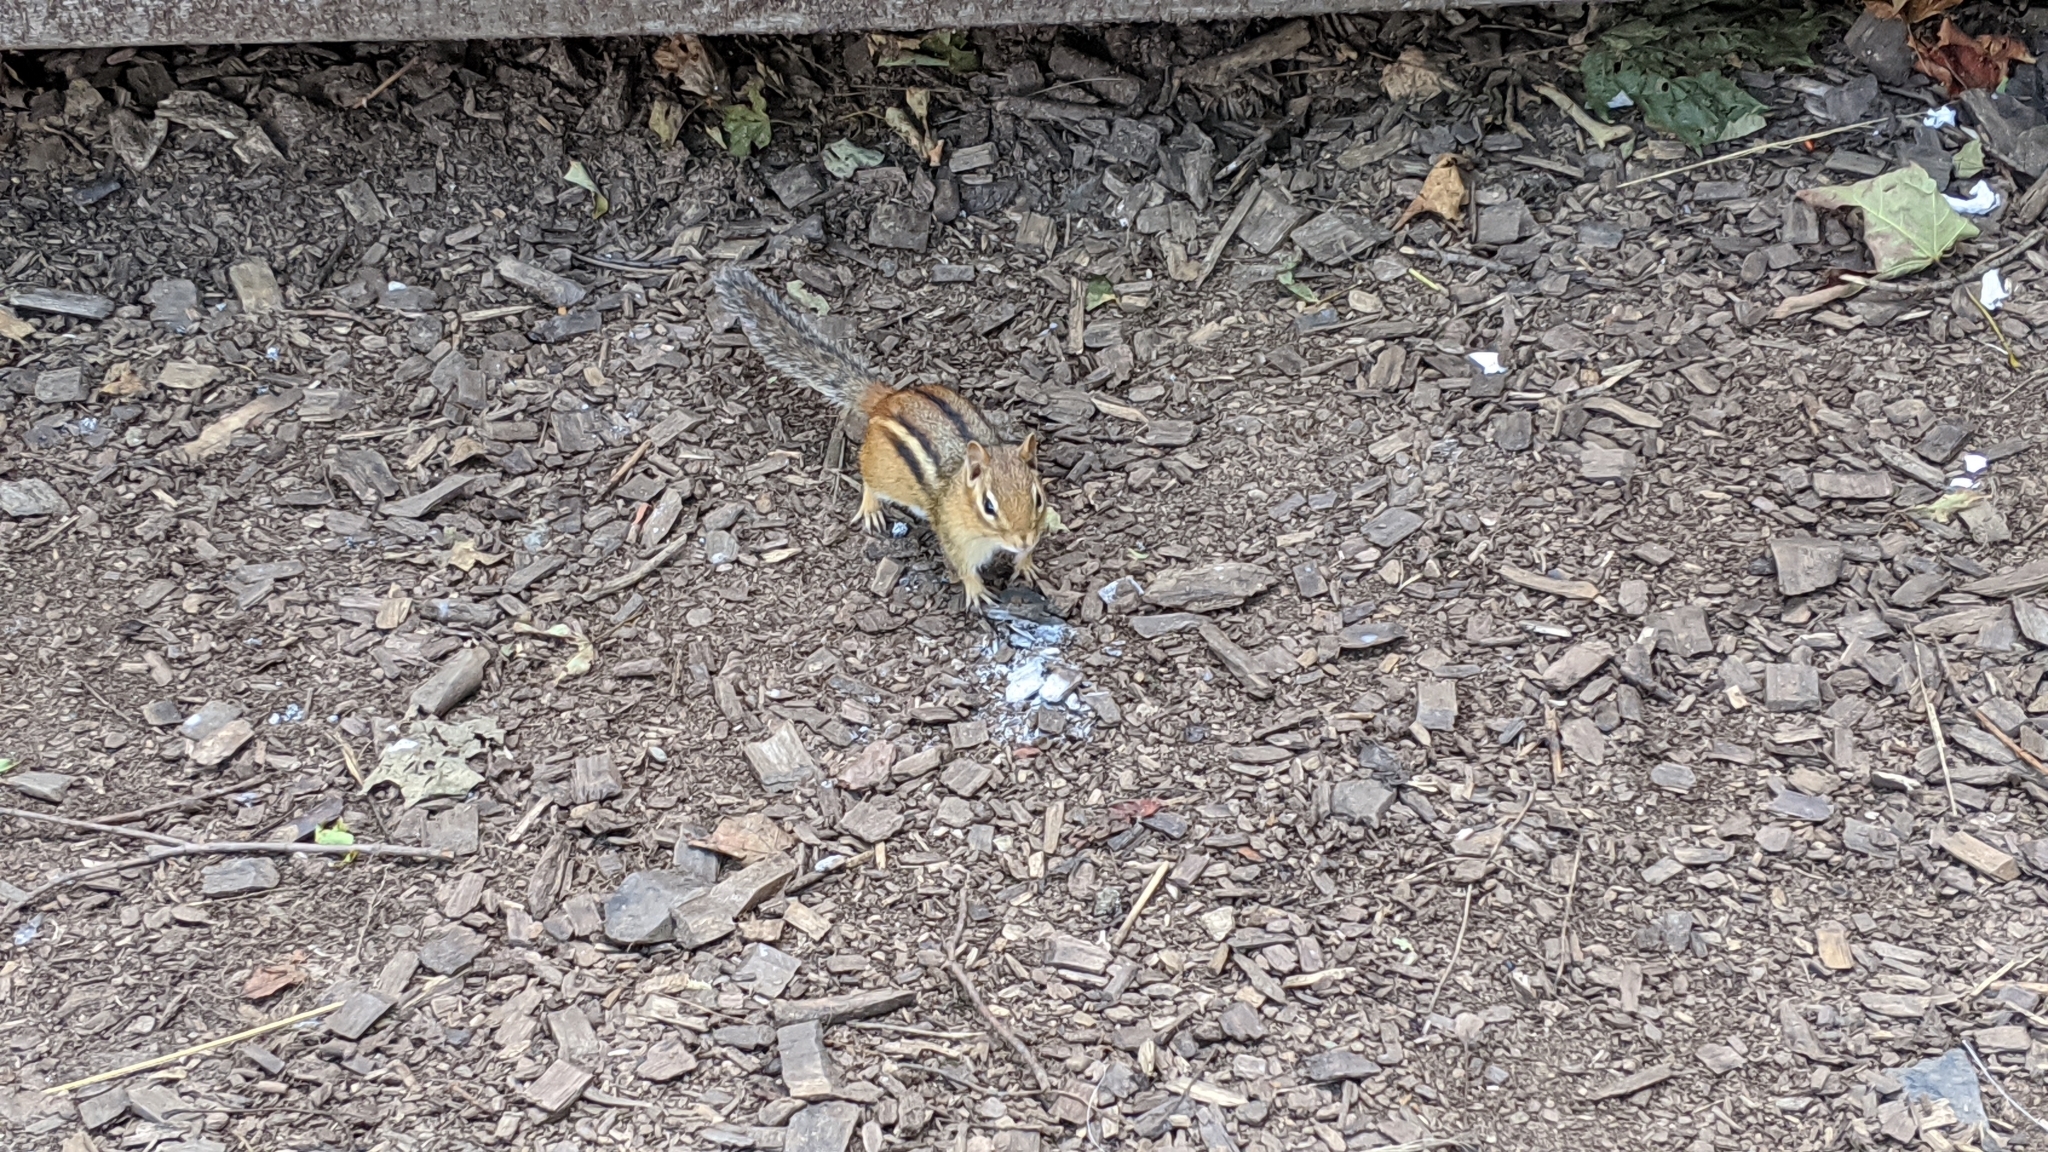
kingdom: Animalia
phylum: Chordata
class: Mammalia
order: Rodentia
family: Sciuridae
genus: Tamias
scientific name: Tamias striatus
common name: Eastern chipmunk
